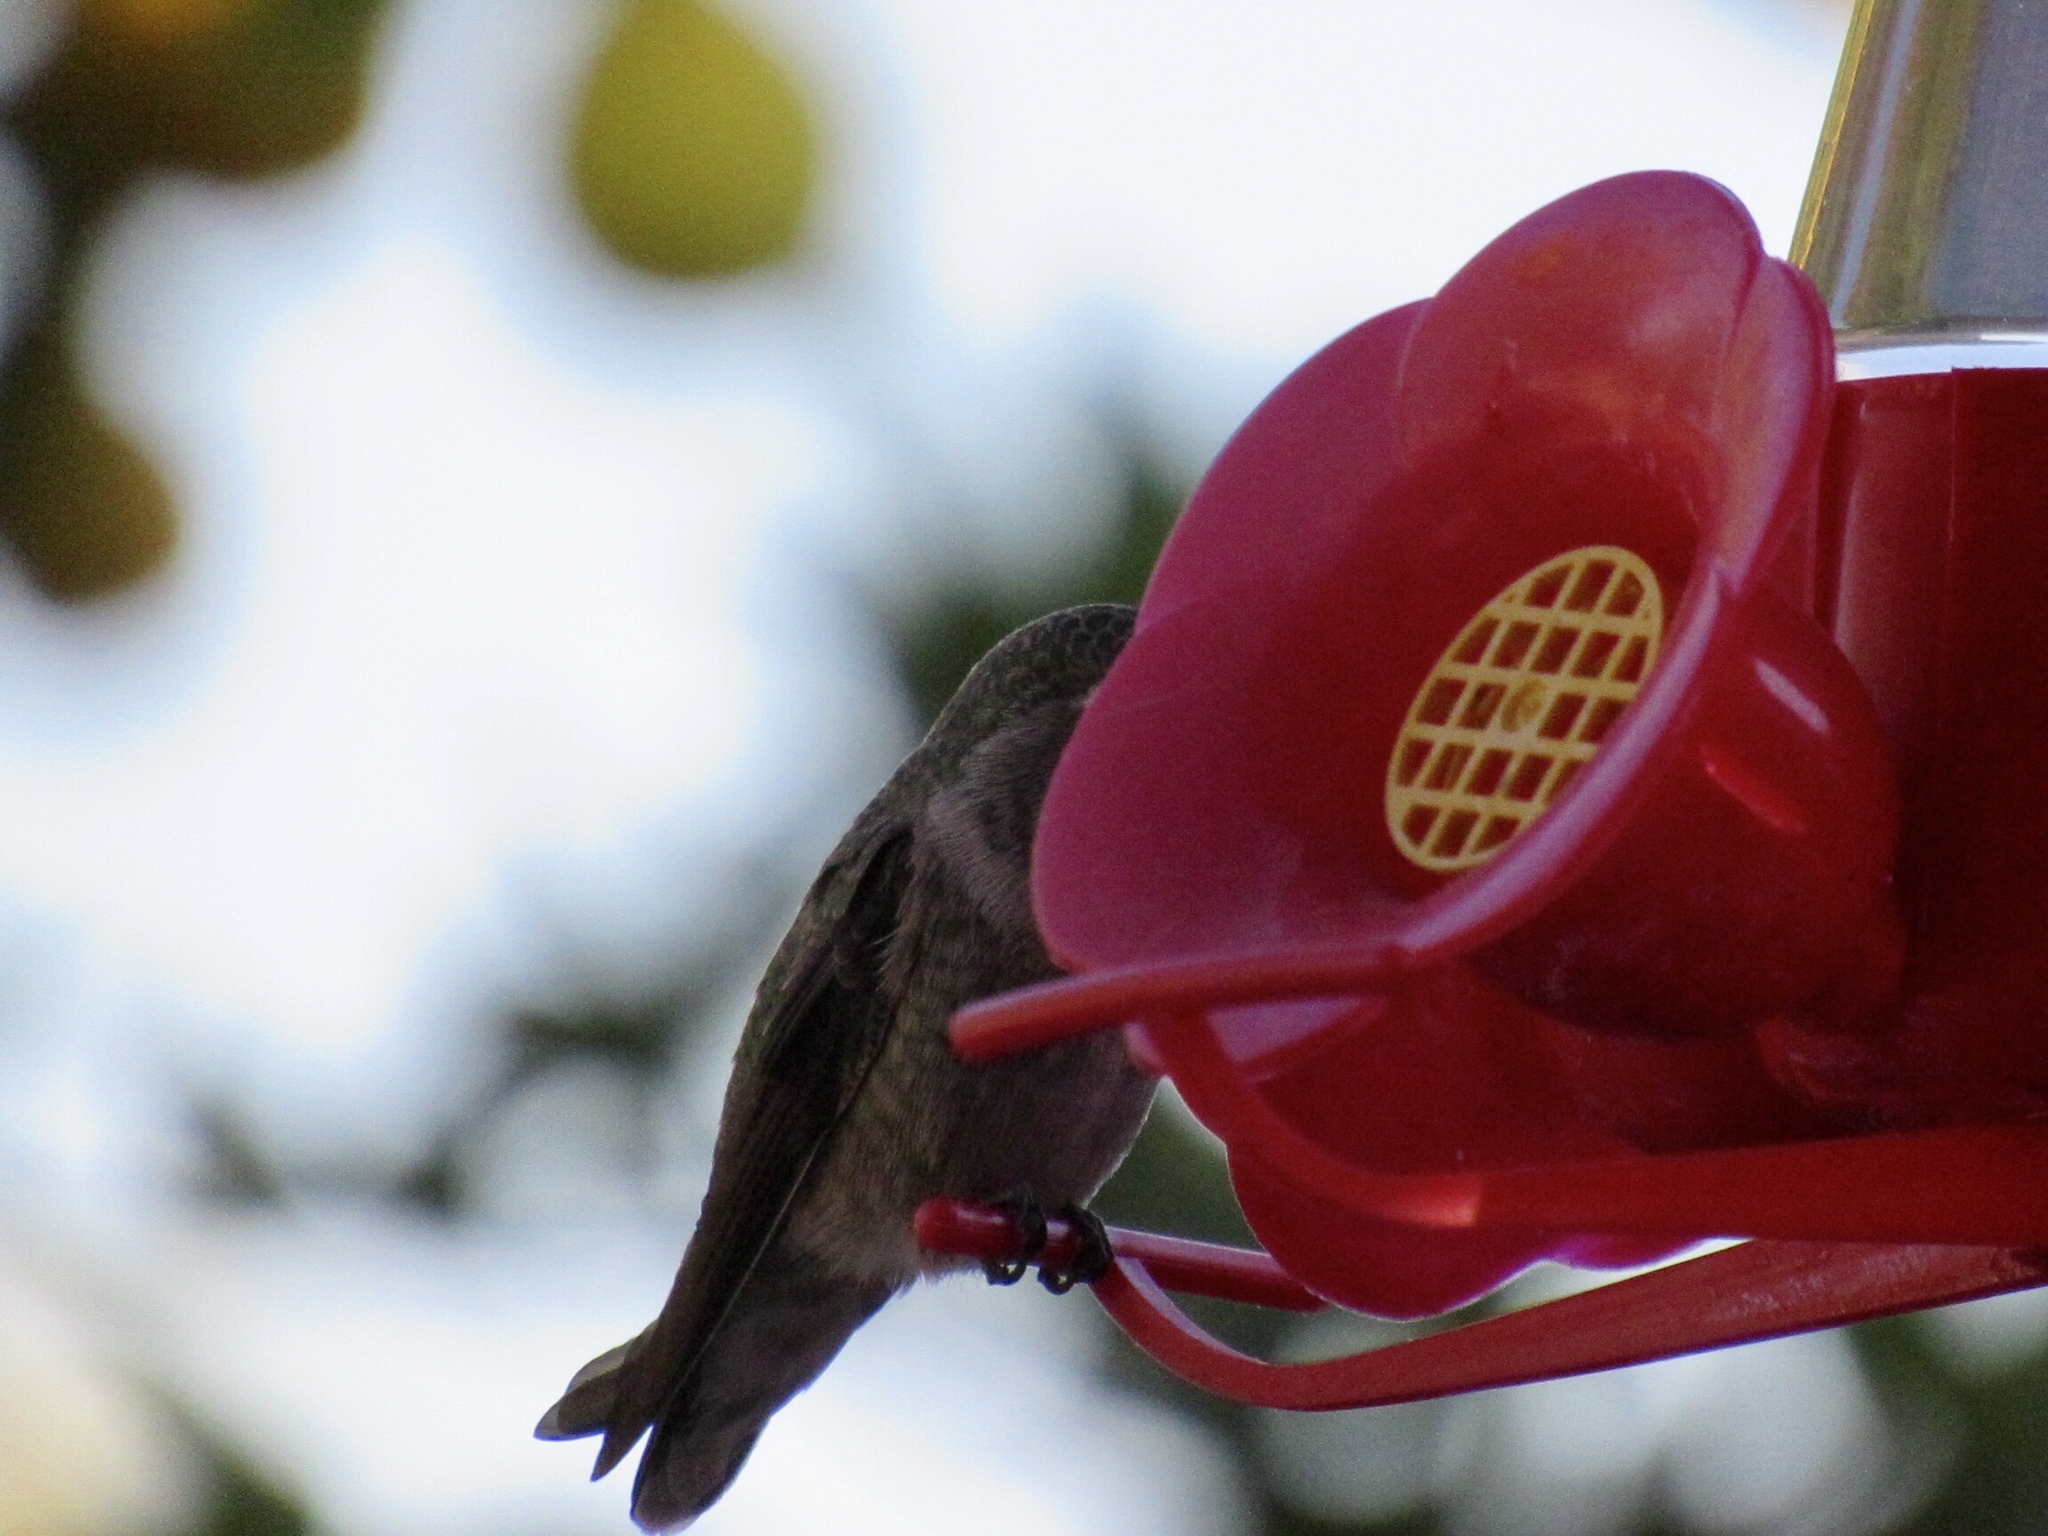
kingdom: Animalia
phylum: Chordata
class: Aves
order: Apodiformes
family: Trochilidae
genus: Calypte
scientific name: Calypte anna
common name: Anna's hummingbird
